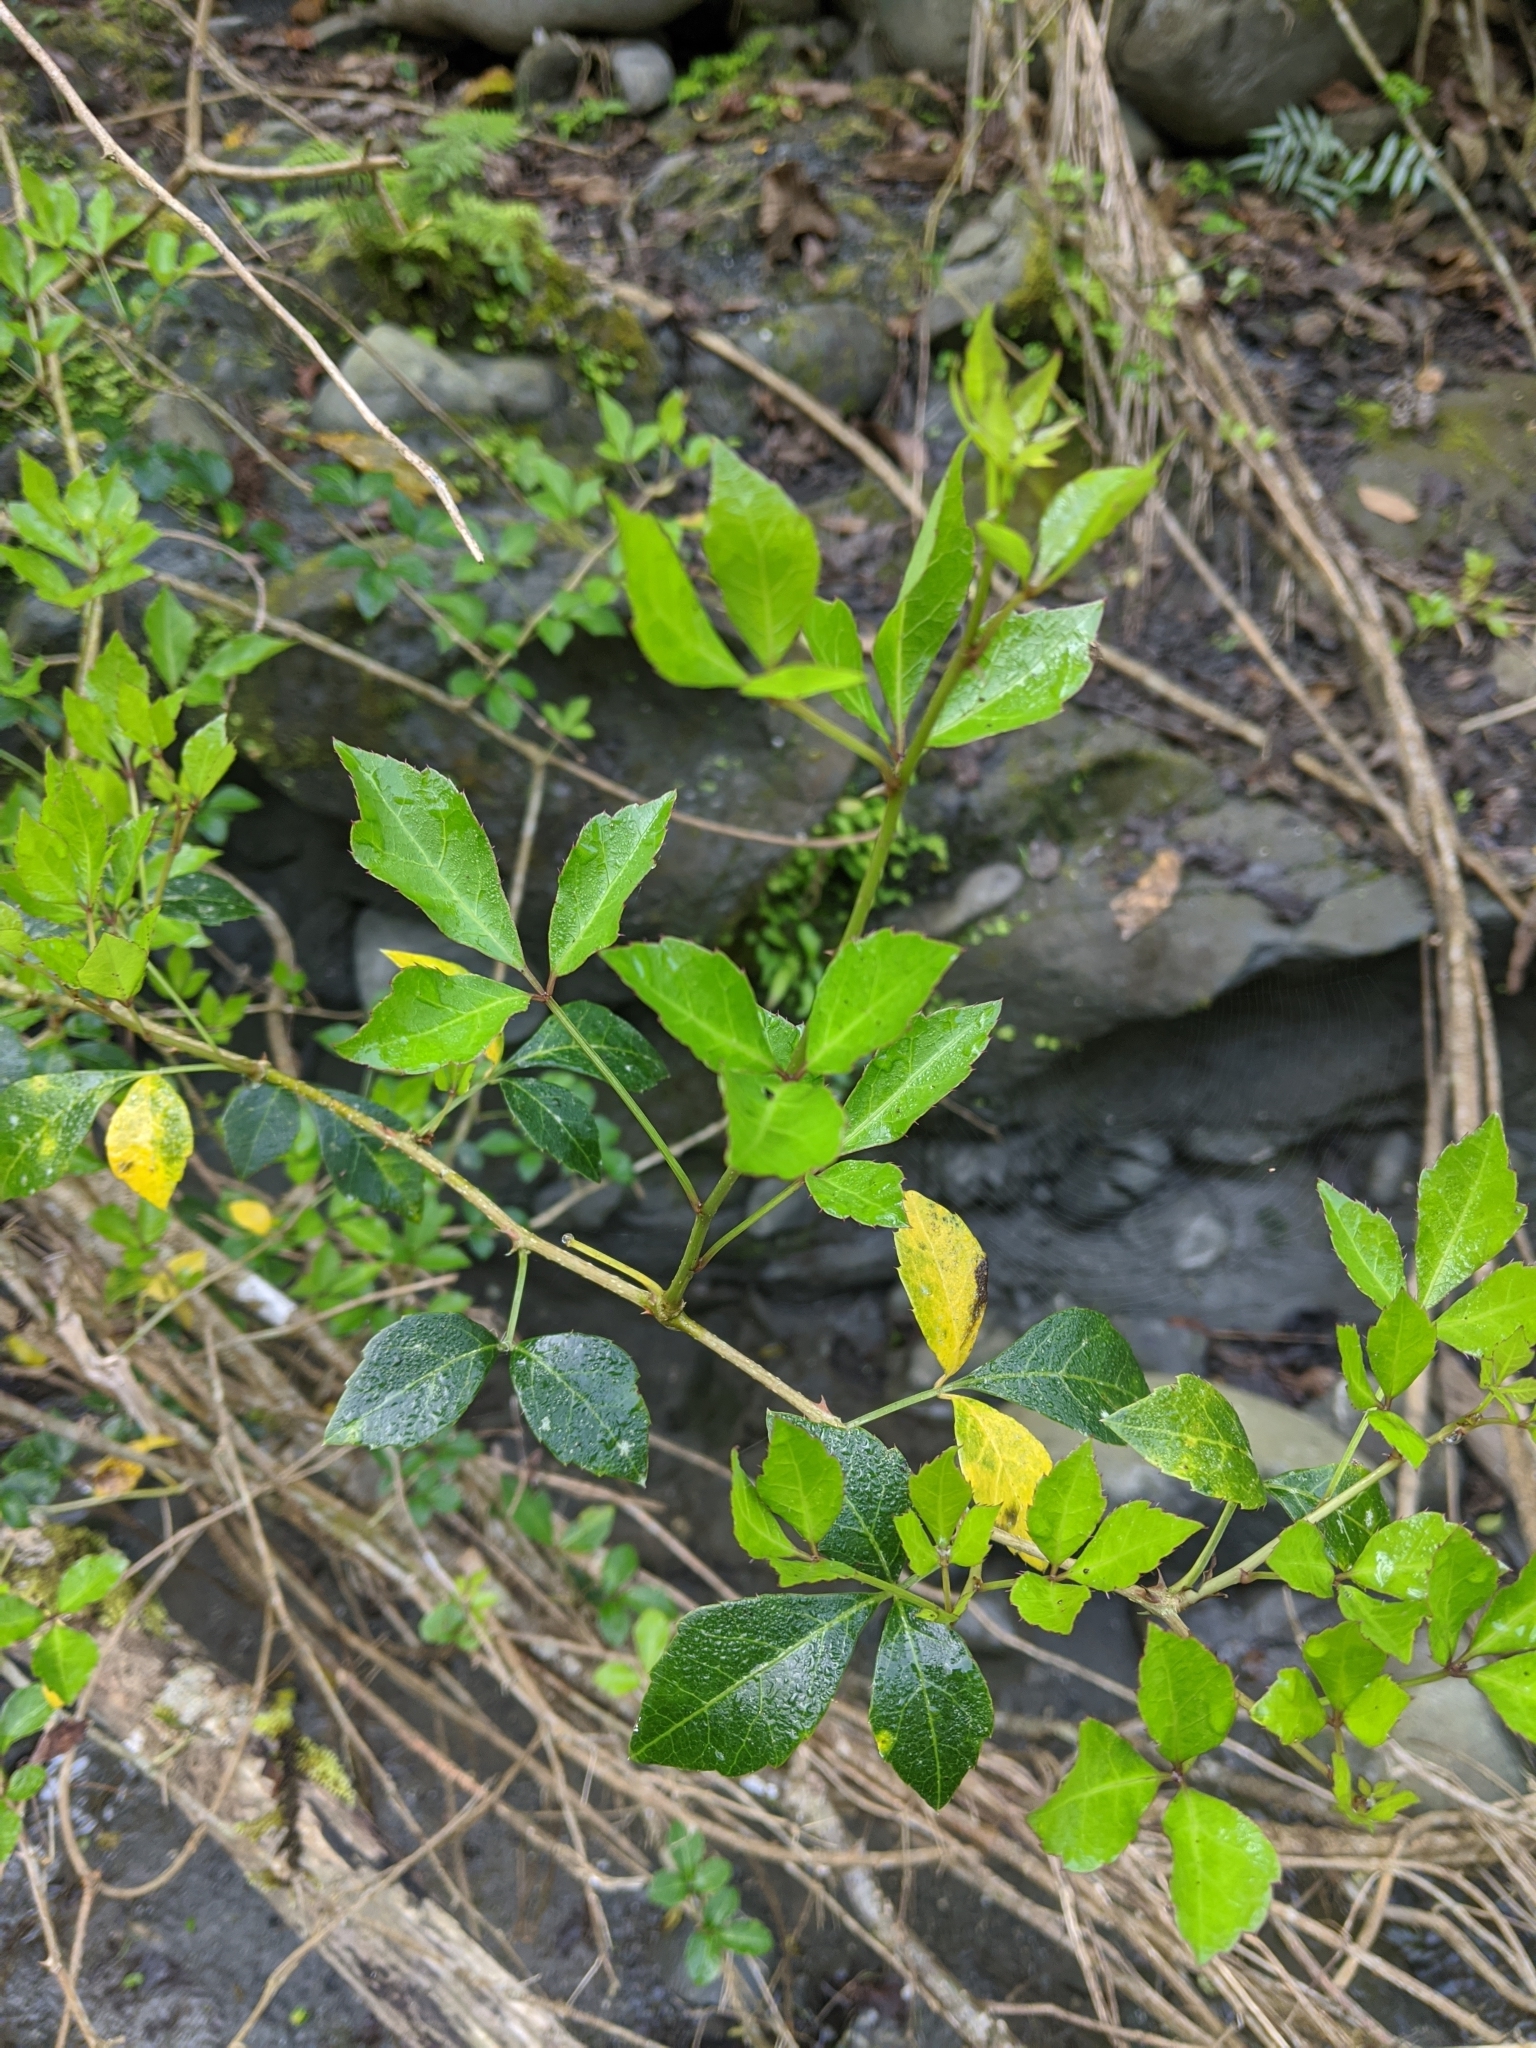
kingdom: Plantae
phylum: Tracheophyta
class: Magnoliopsida
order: Apiales
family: Araliaceae
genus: Eleutherococcus
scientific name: Eleutherococcus trifoliatus
